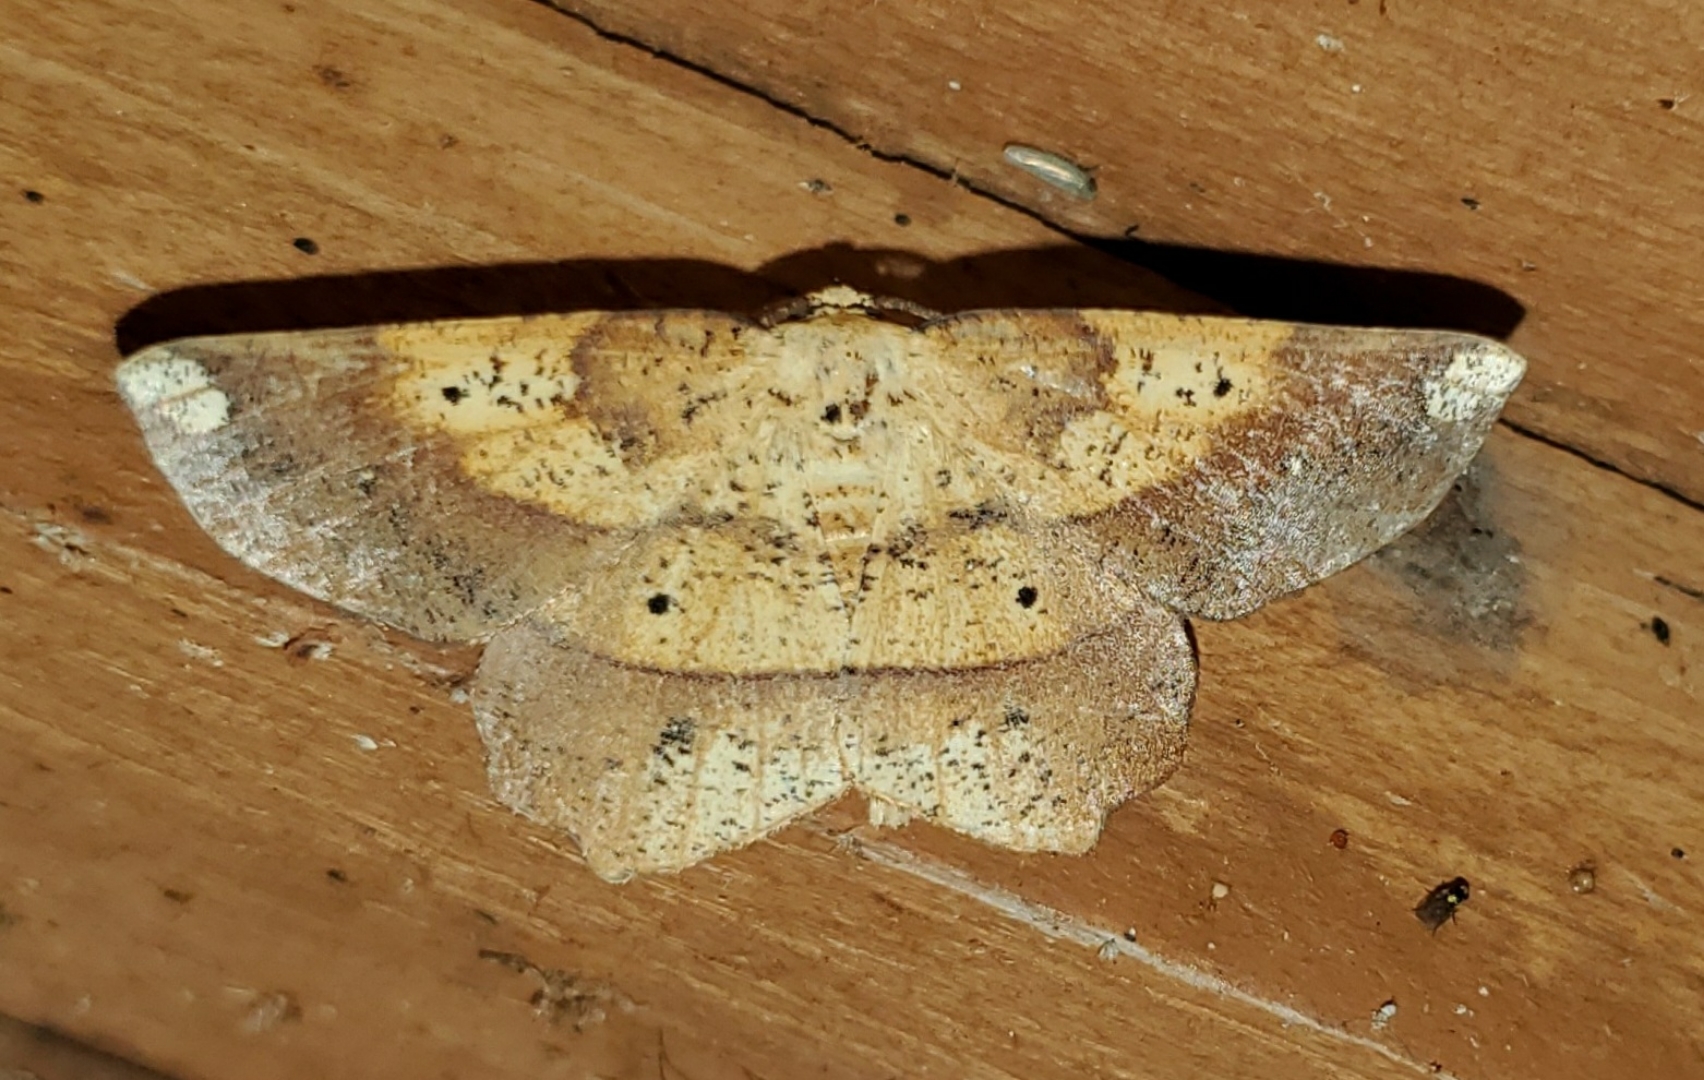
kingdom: Animalia
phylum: Arthropoda
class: Insecta
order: Lepidoptera
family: Geometridae
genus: Euchlaena
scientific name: Euchlaena deplanaria
